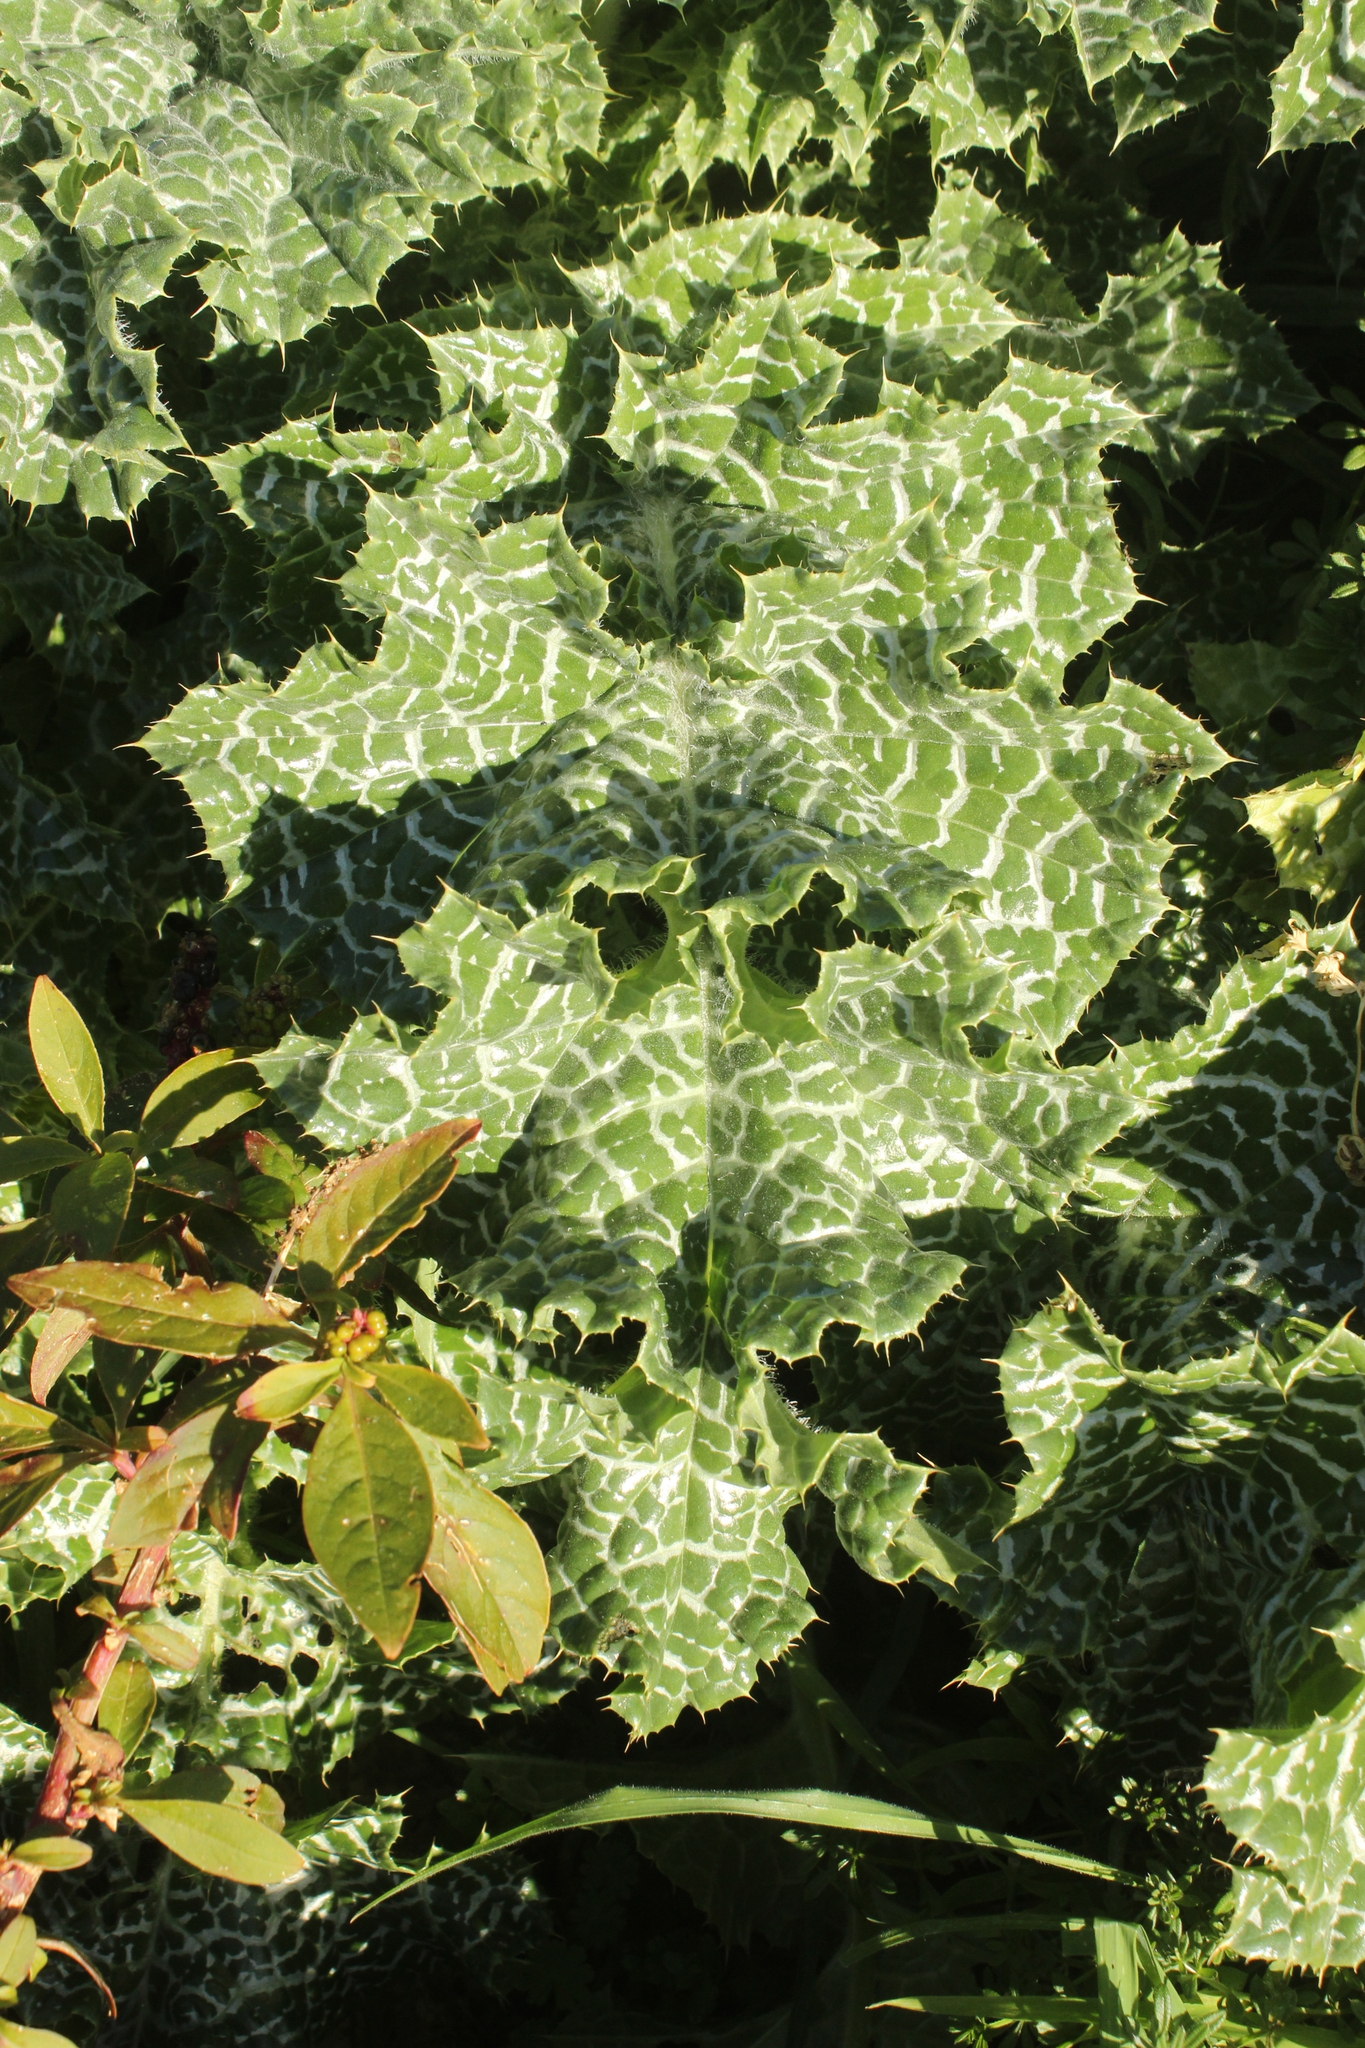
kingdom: Plantae
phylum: Tracheophyta
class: Magnoliopsida
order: Asterales
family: Asteraceae
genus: Silybum
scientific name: Silybum marianum
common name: Milk thistle
